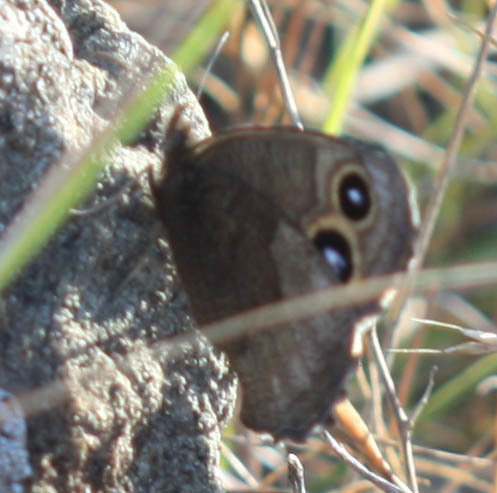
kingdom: Animalia
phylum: Arthropoda
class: Insecta
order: Lepidoptera
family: Nymphalidae
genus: Cercyonis
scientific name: Cercyonis pegala
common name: Common wood-nymph
